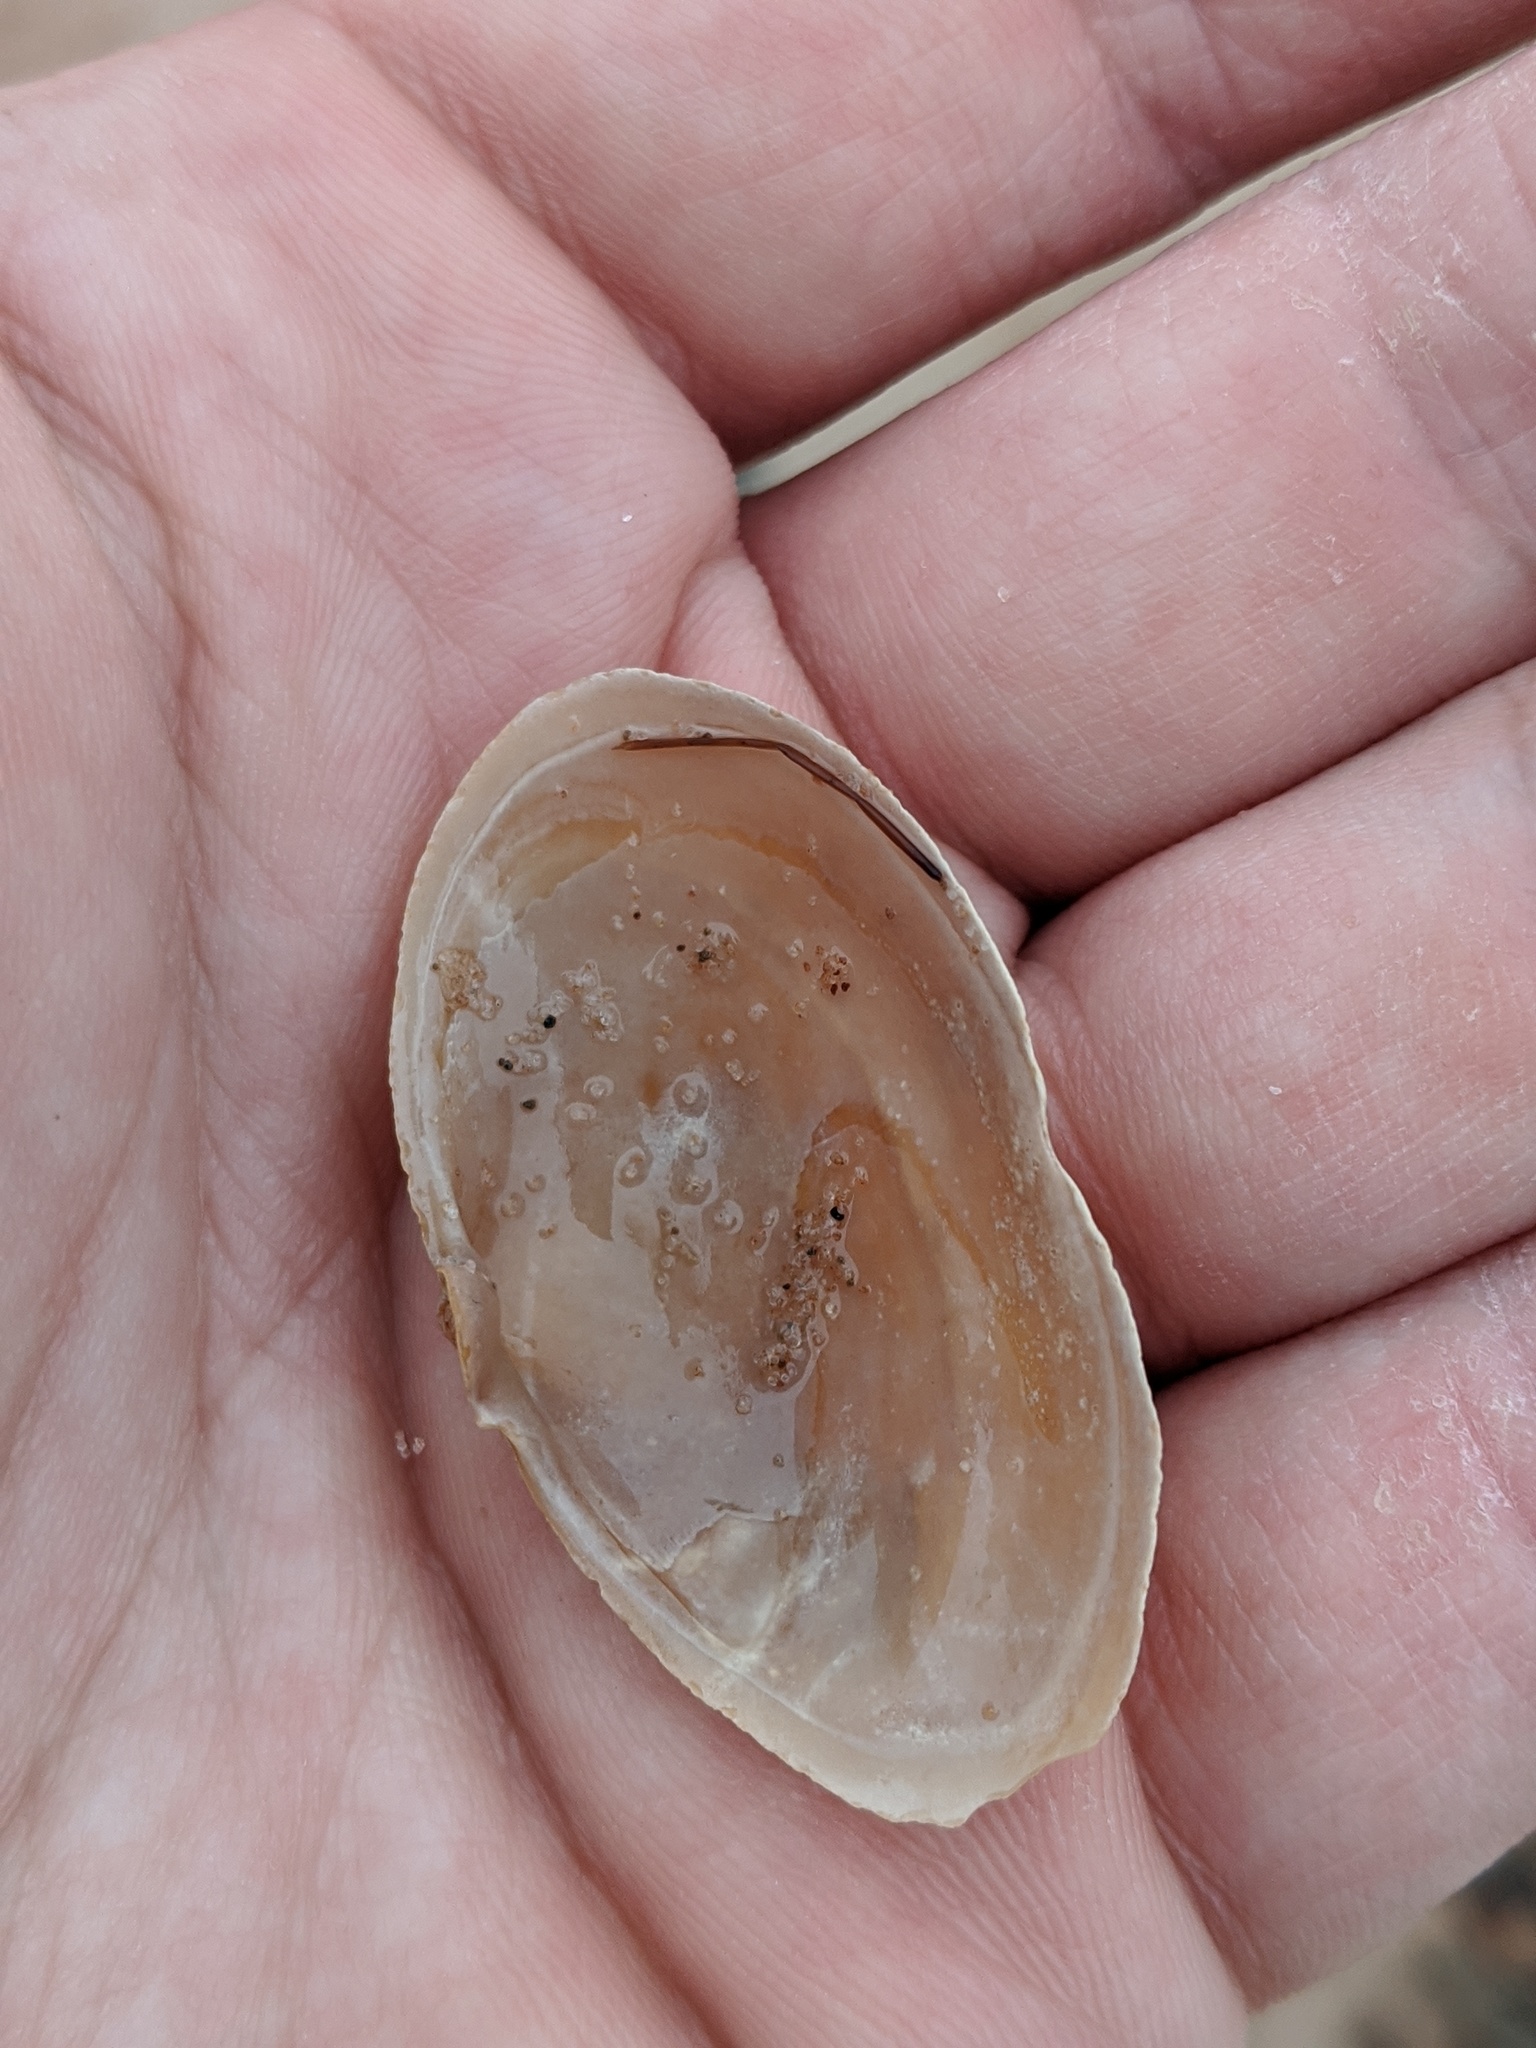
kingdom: Animalia
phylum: Mollusca
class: Bivalvia
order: Myida
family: Myidae
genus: Mya
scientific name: Mya arenaria
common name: Soft-shelled clam
